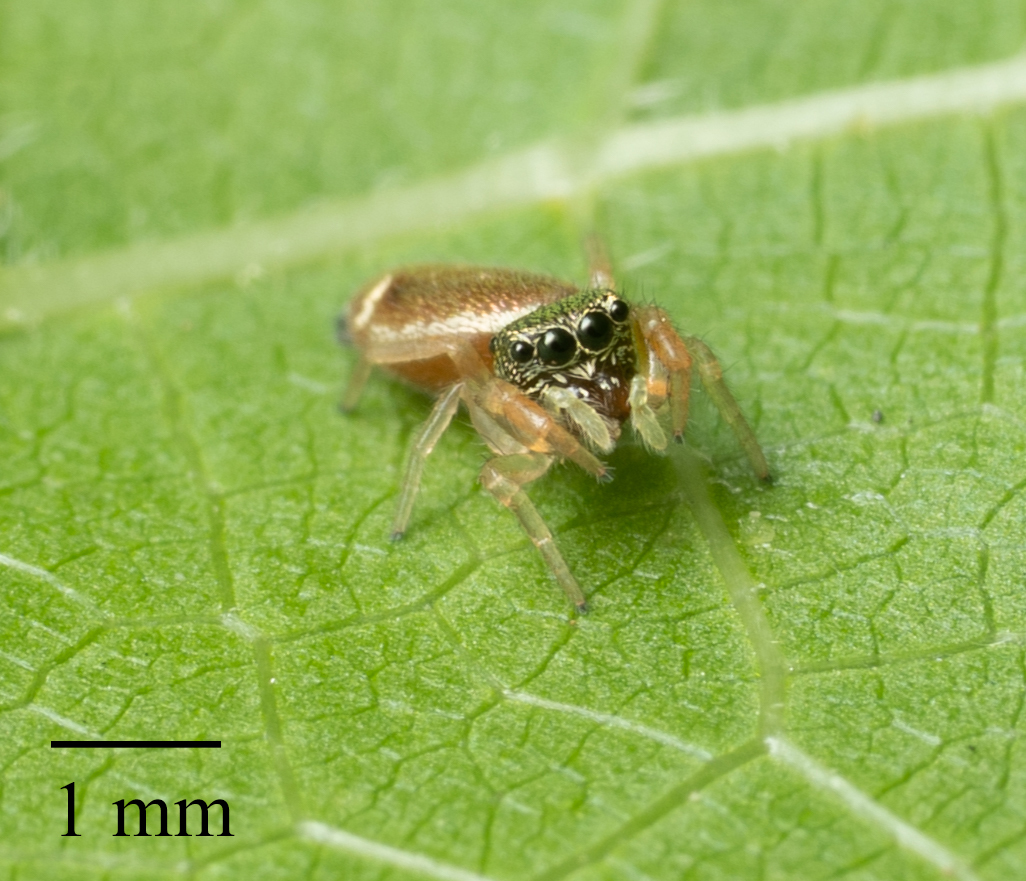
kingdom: Animalia
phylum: Arthropoda
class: Arachnida
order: Araneae
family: Salticidae
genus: Sassacus
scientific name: Sassacus vitis
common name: Jumping spiders
